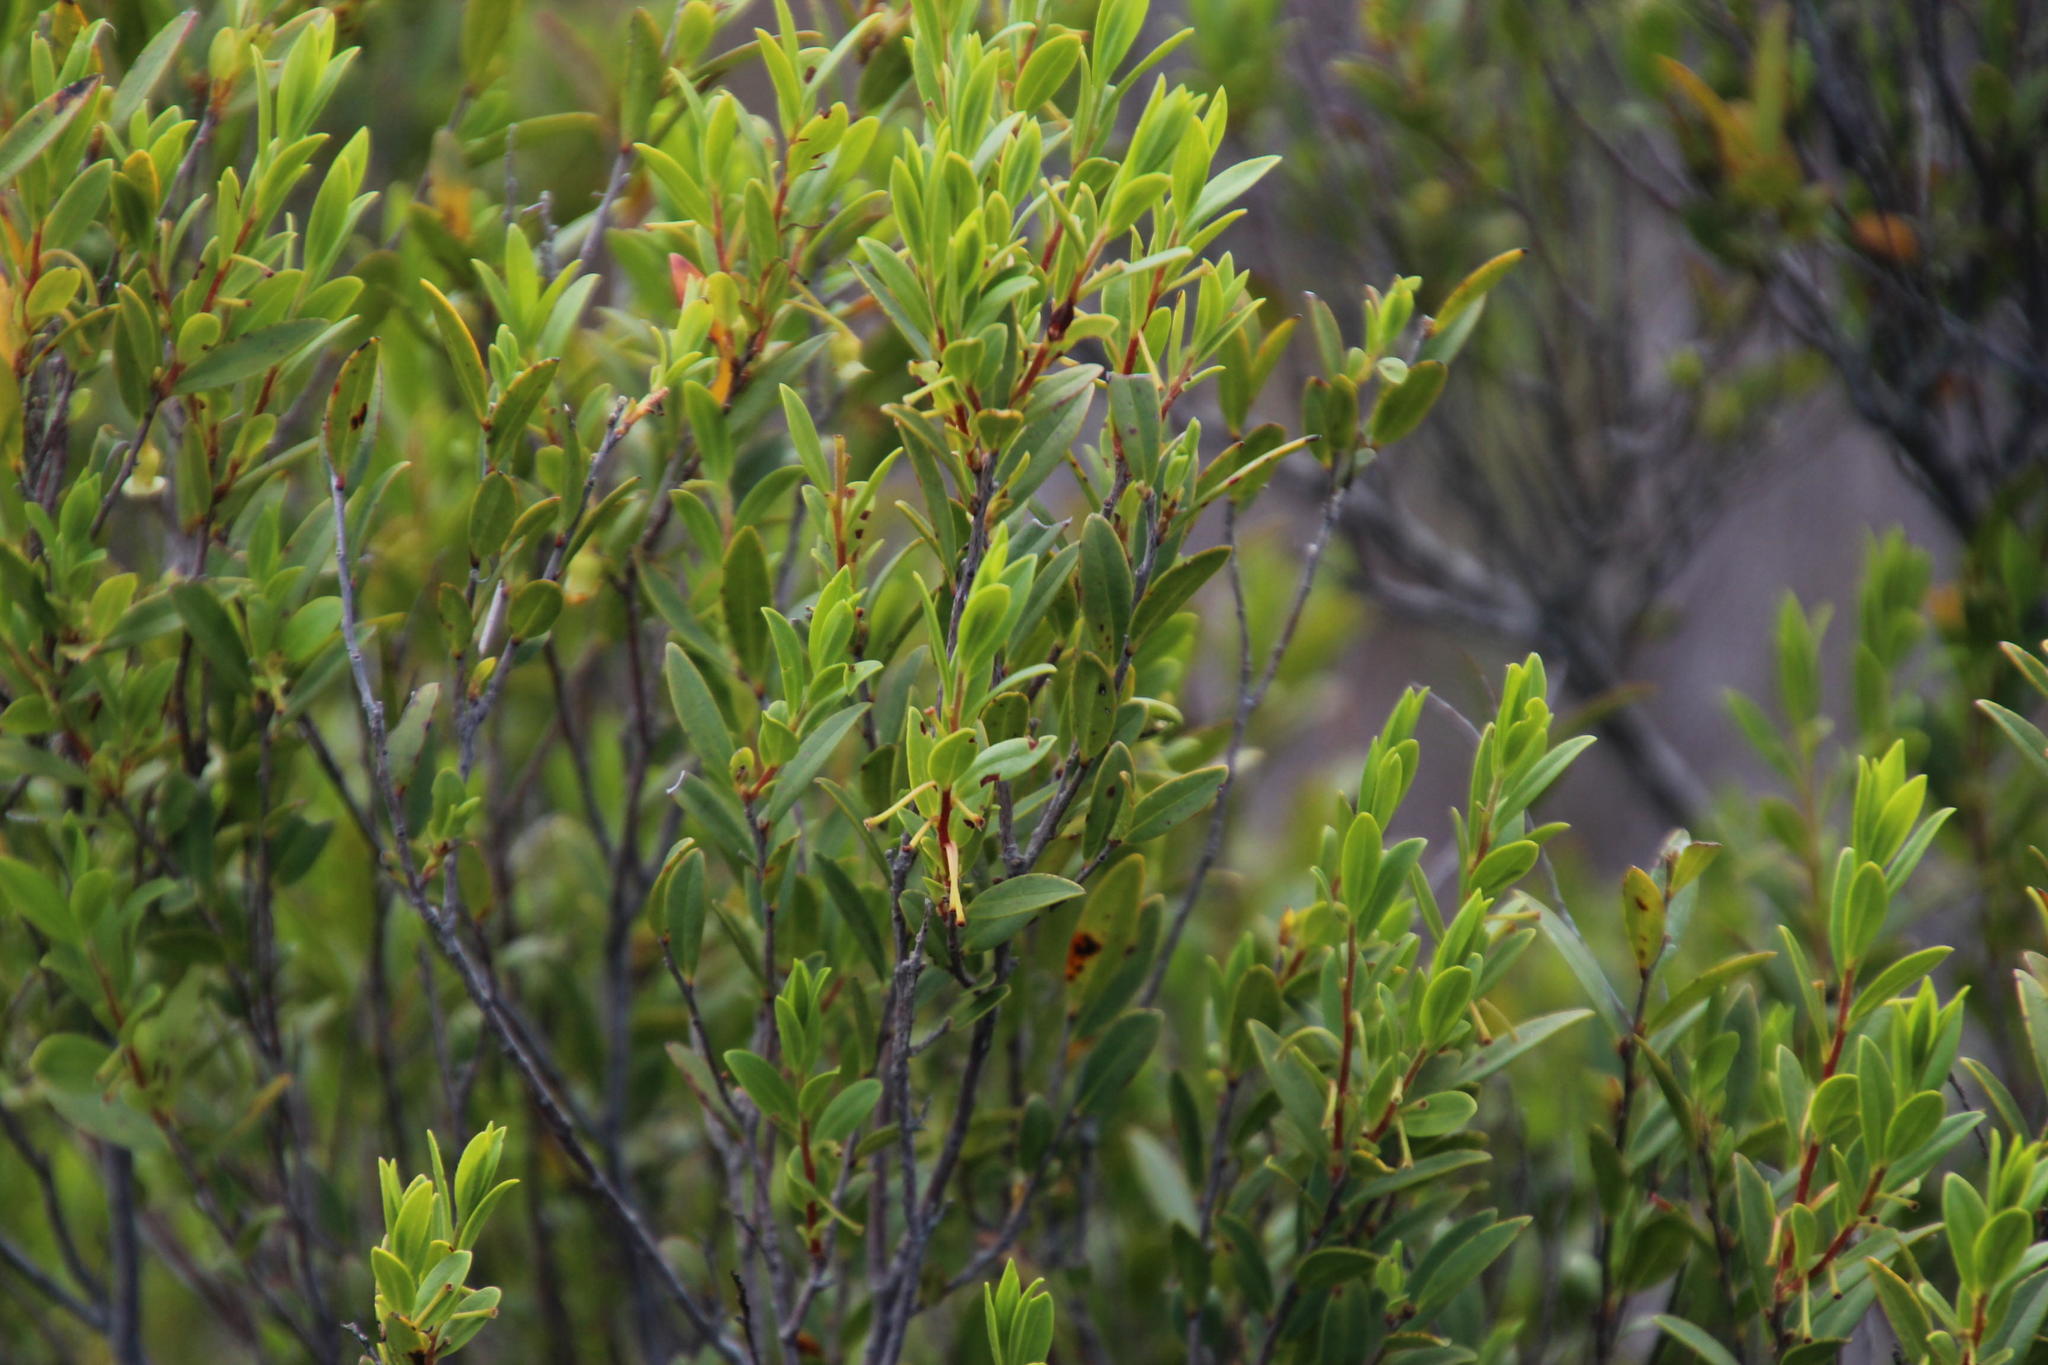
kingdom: Plantae
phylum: Tracheophyta
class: Magnoliopsida
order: Ericales
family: Ebenaceae
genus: Diospyros
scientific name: Diospyros glabra
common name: Fynbos star apple
